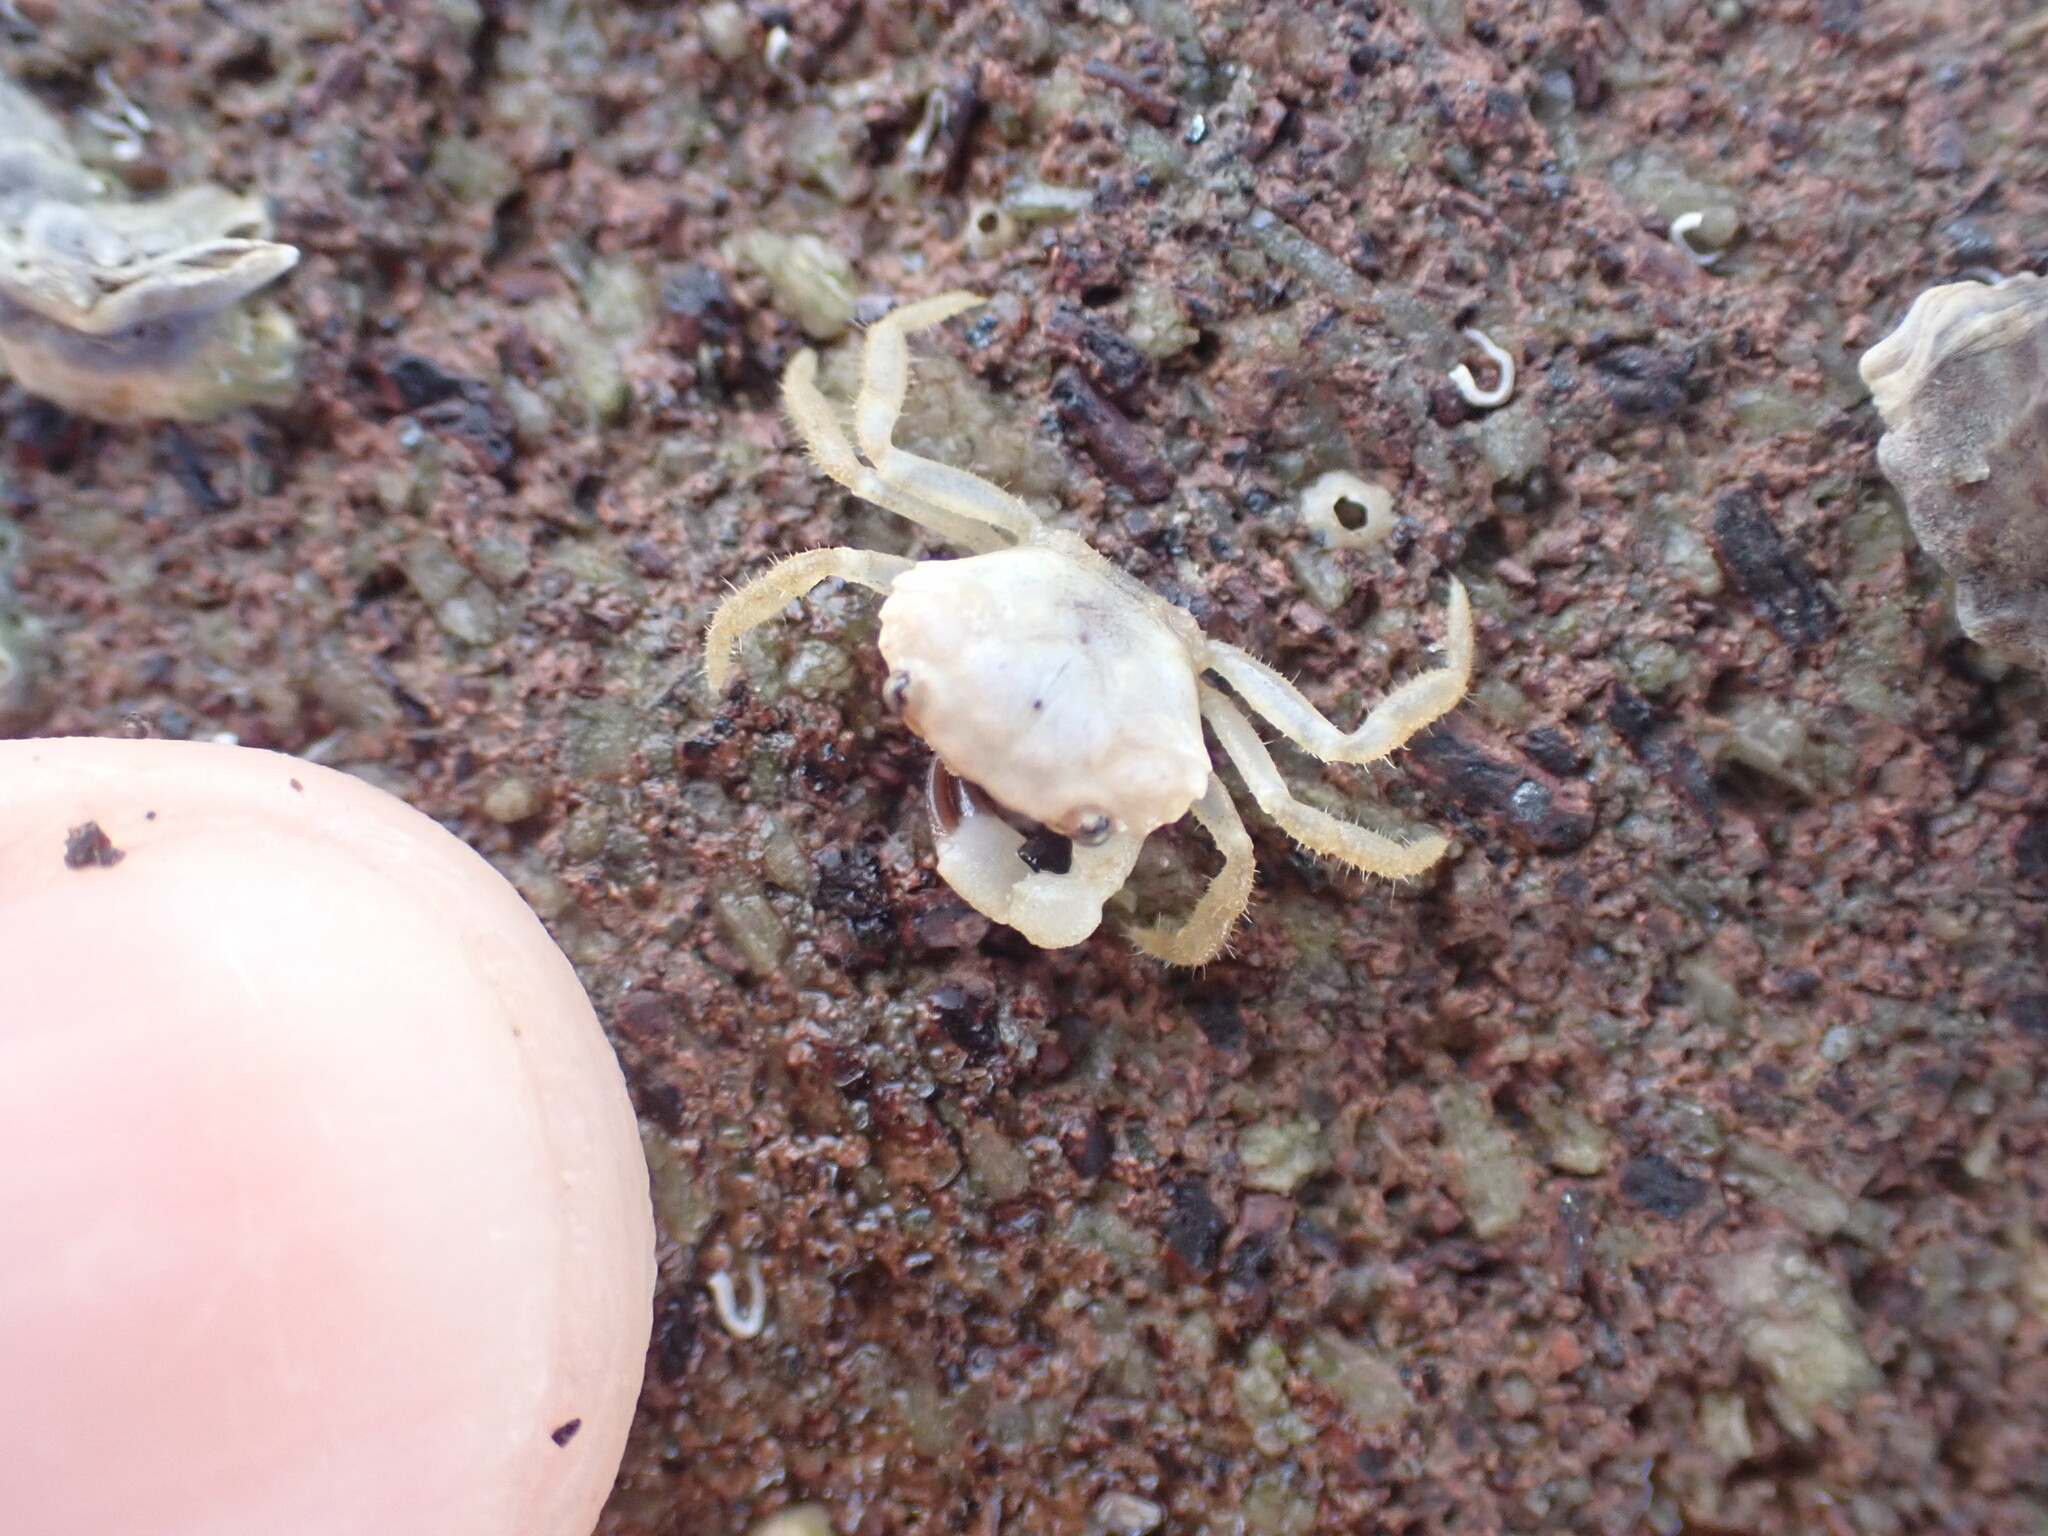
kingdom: Animalia
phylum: Arthropoda
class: Malacostraca
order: Decapoda
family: Oziidae
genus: Ozius
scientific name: Ozius deplanatus
